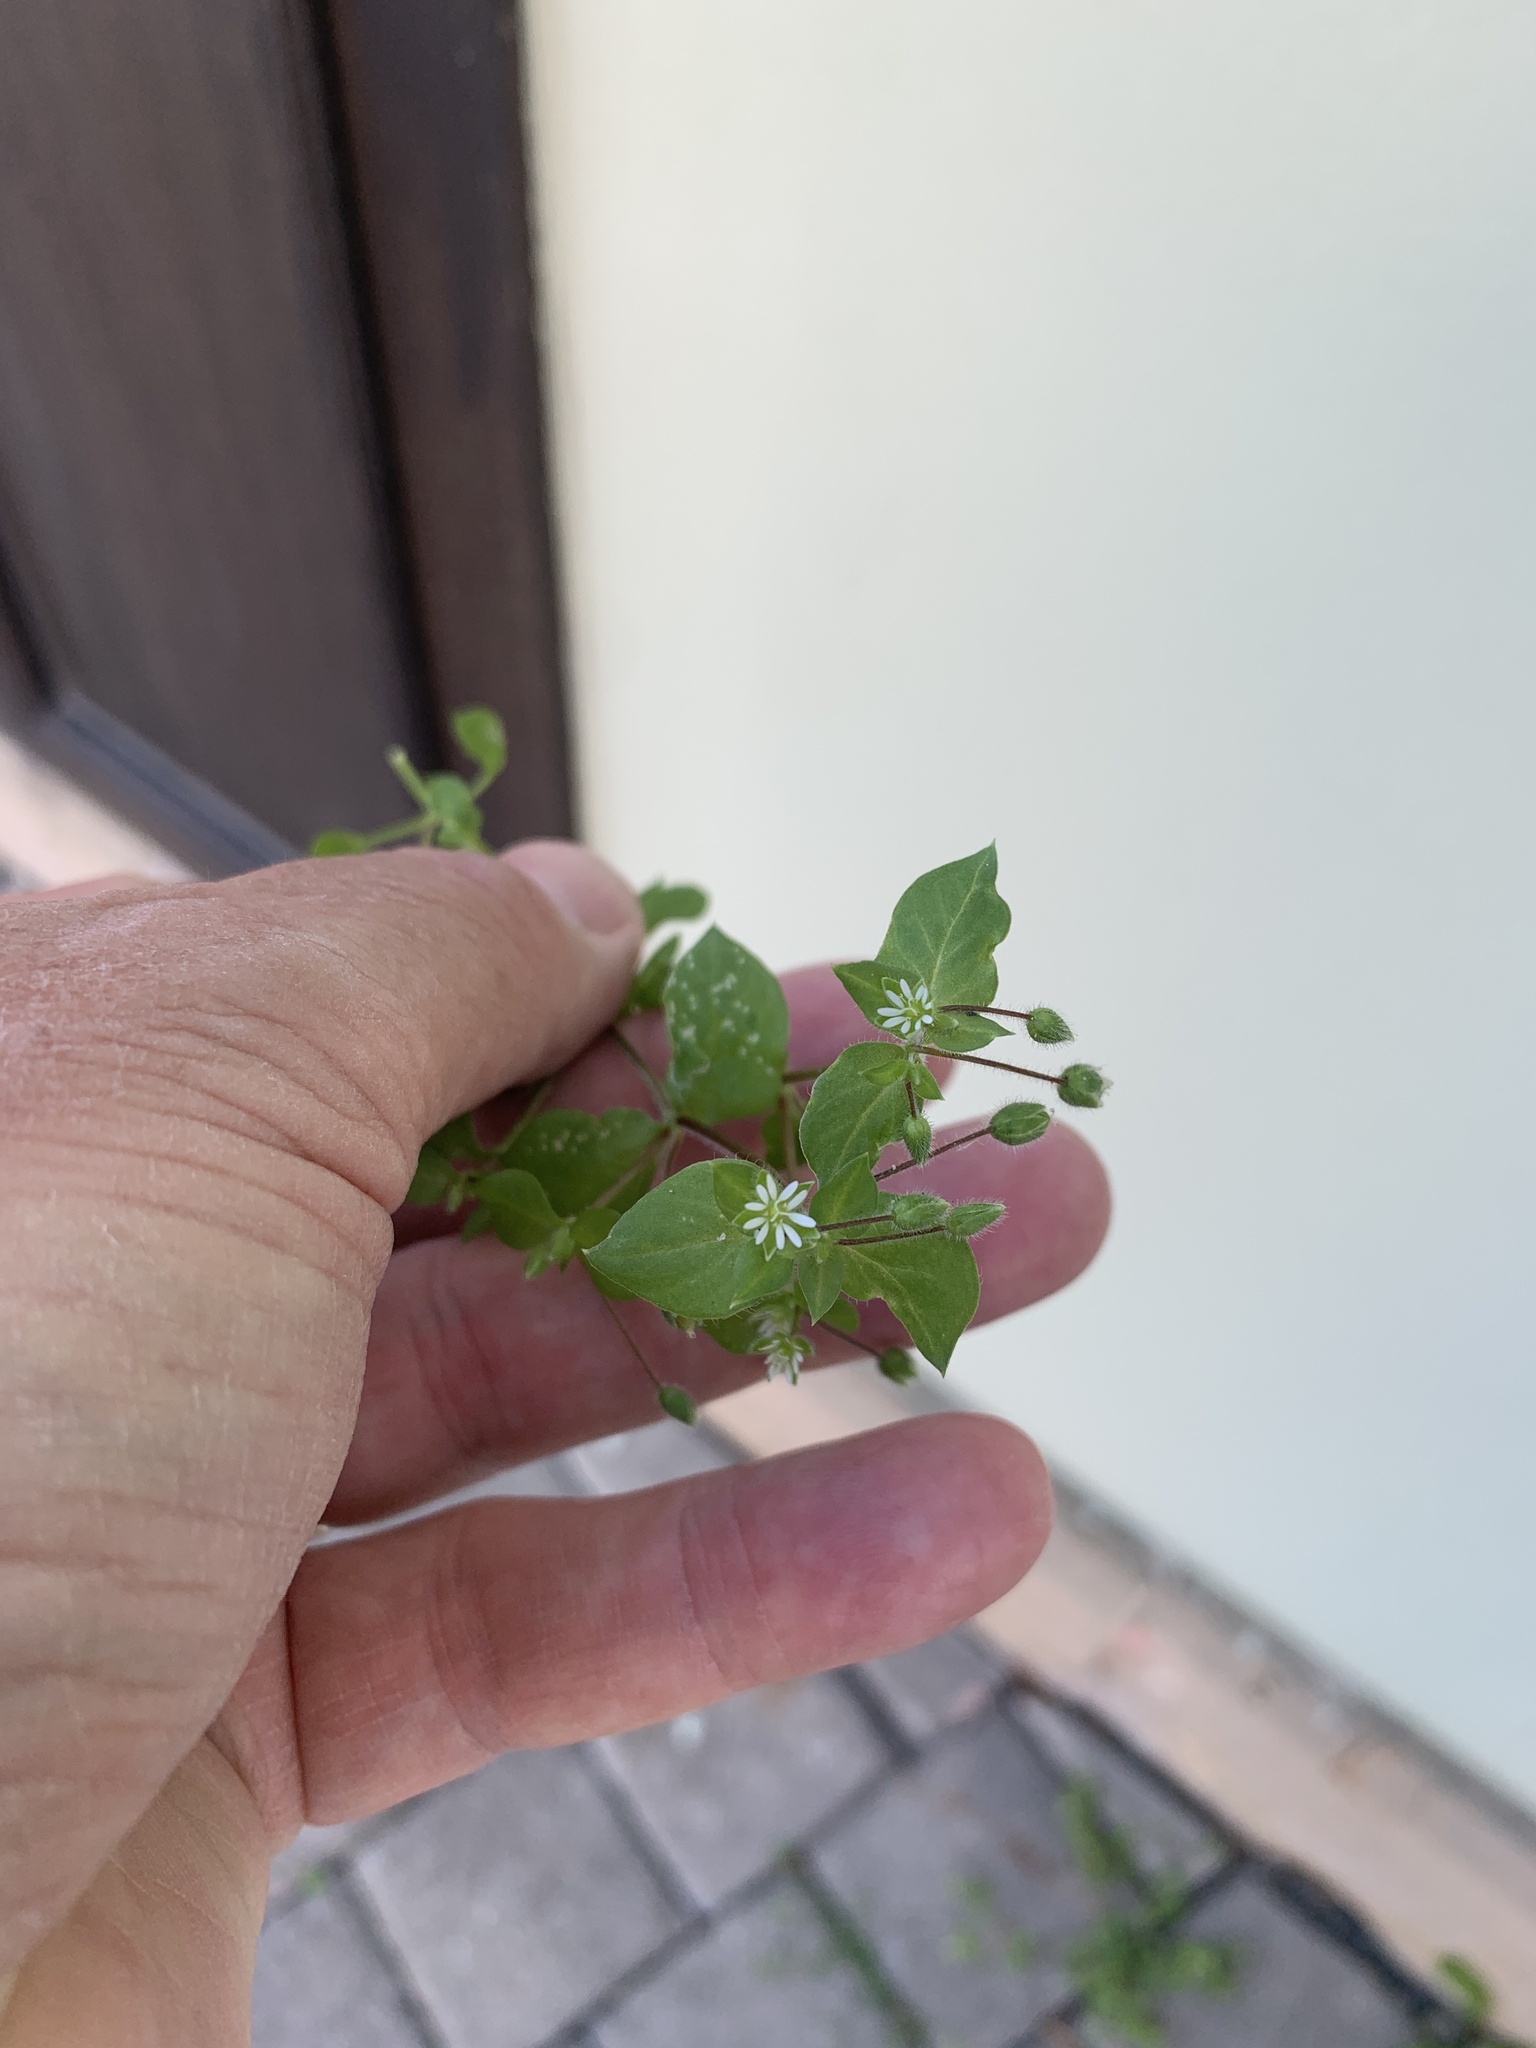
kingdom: Plantae
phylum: Tracheophyta
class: Magnoliopsida
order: Caryophyllales
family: Caryophyllaceae
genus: Stellaria
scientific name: Stellaria media
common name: Common chickweed
